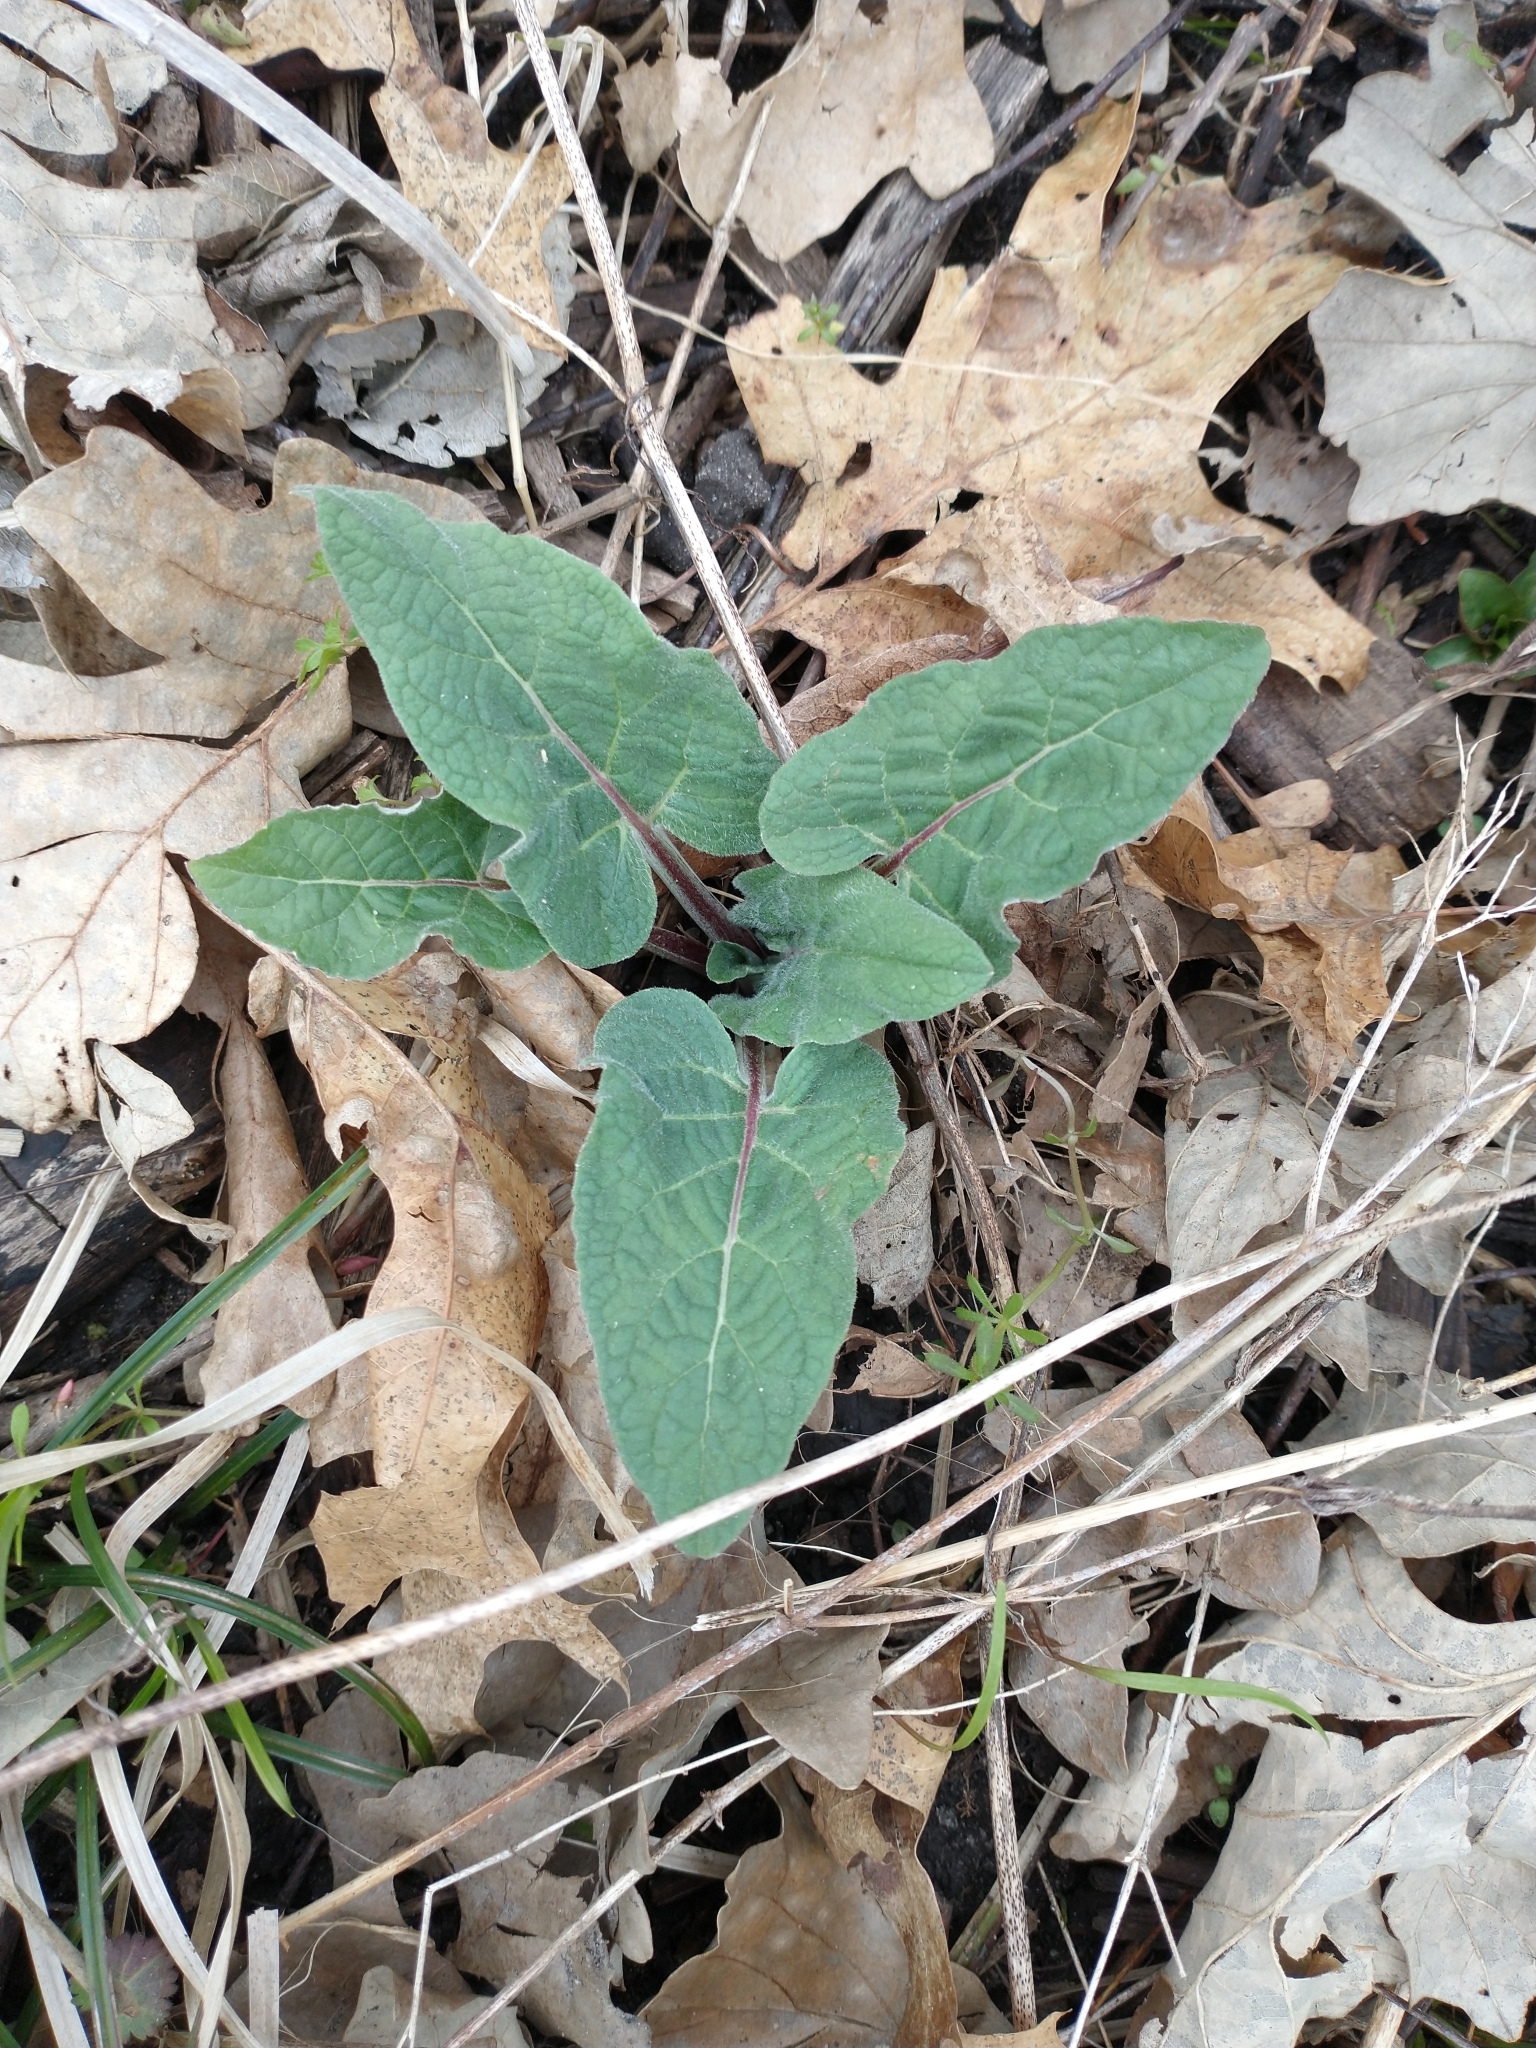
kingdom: Plantae
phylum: Tracheophyta
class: Magnoliopsida
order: Asterales
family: Asteraceae
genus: Arctium
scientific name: Arctium minus
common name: Lesser burdock
